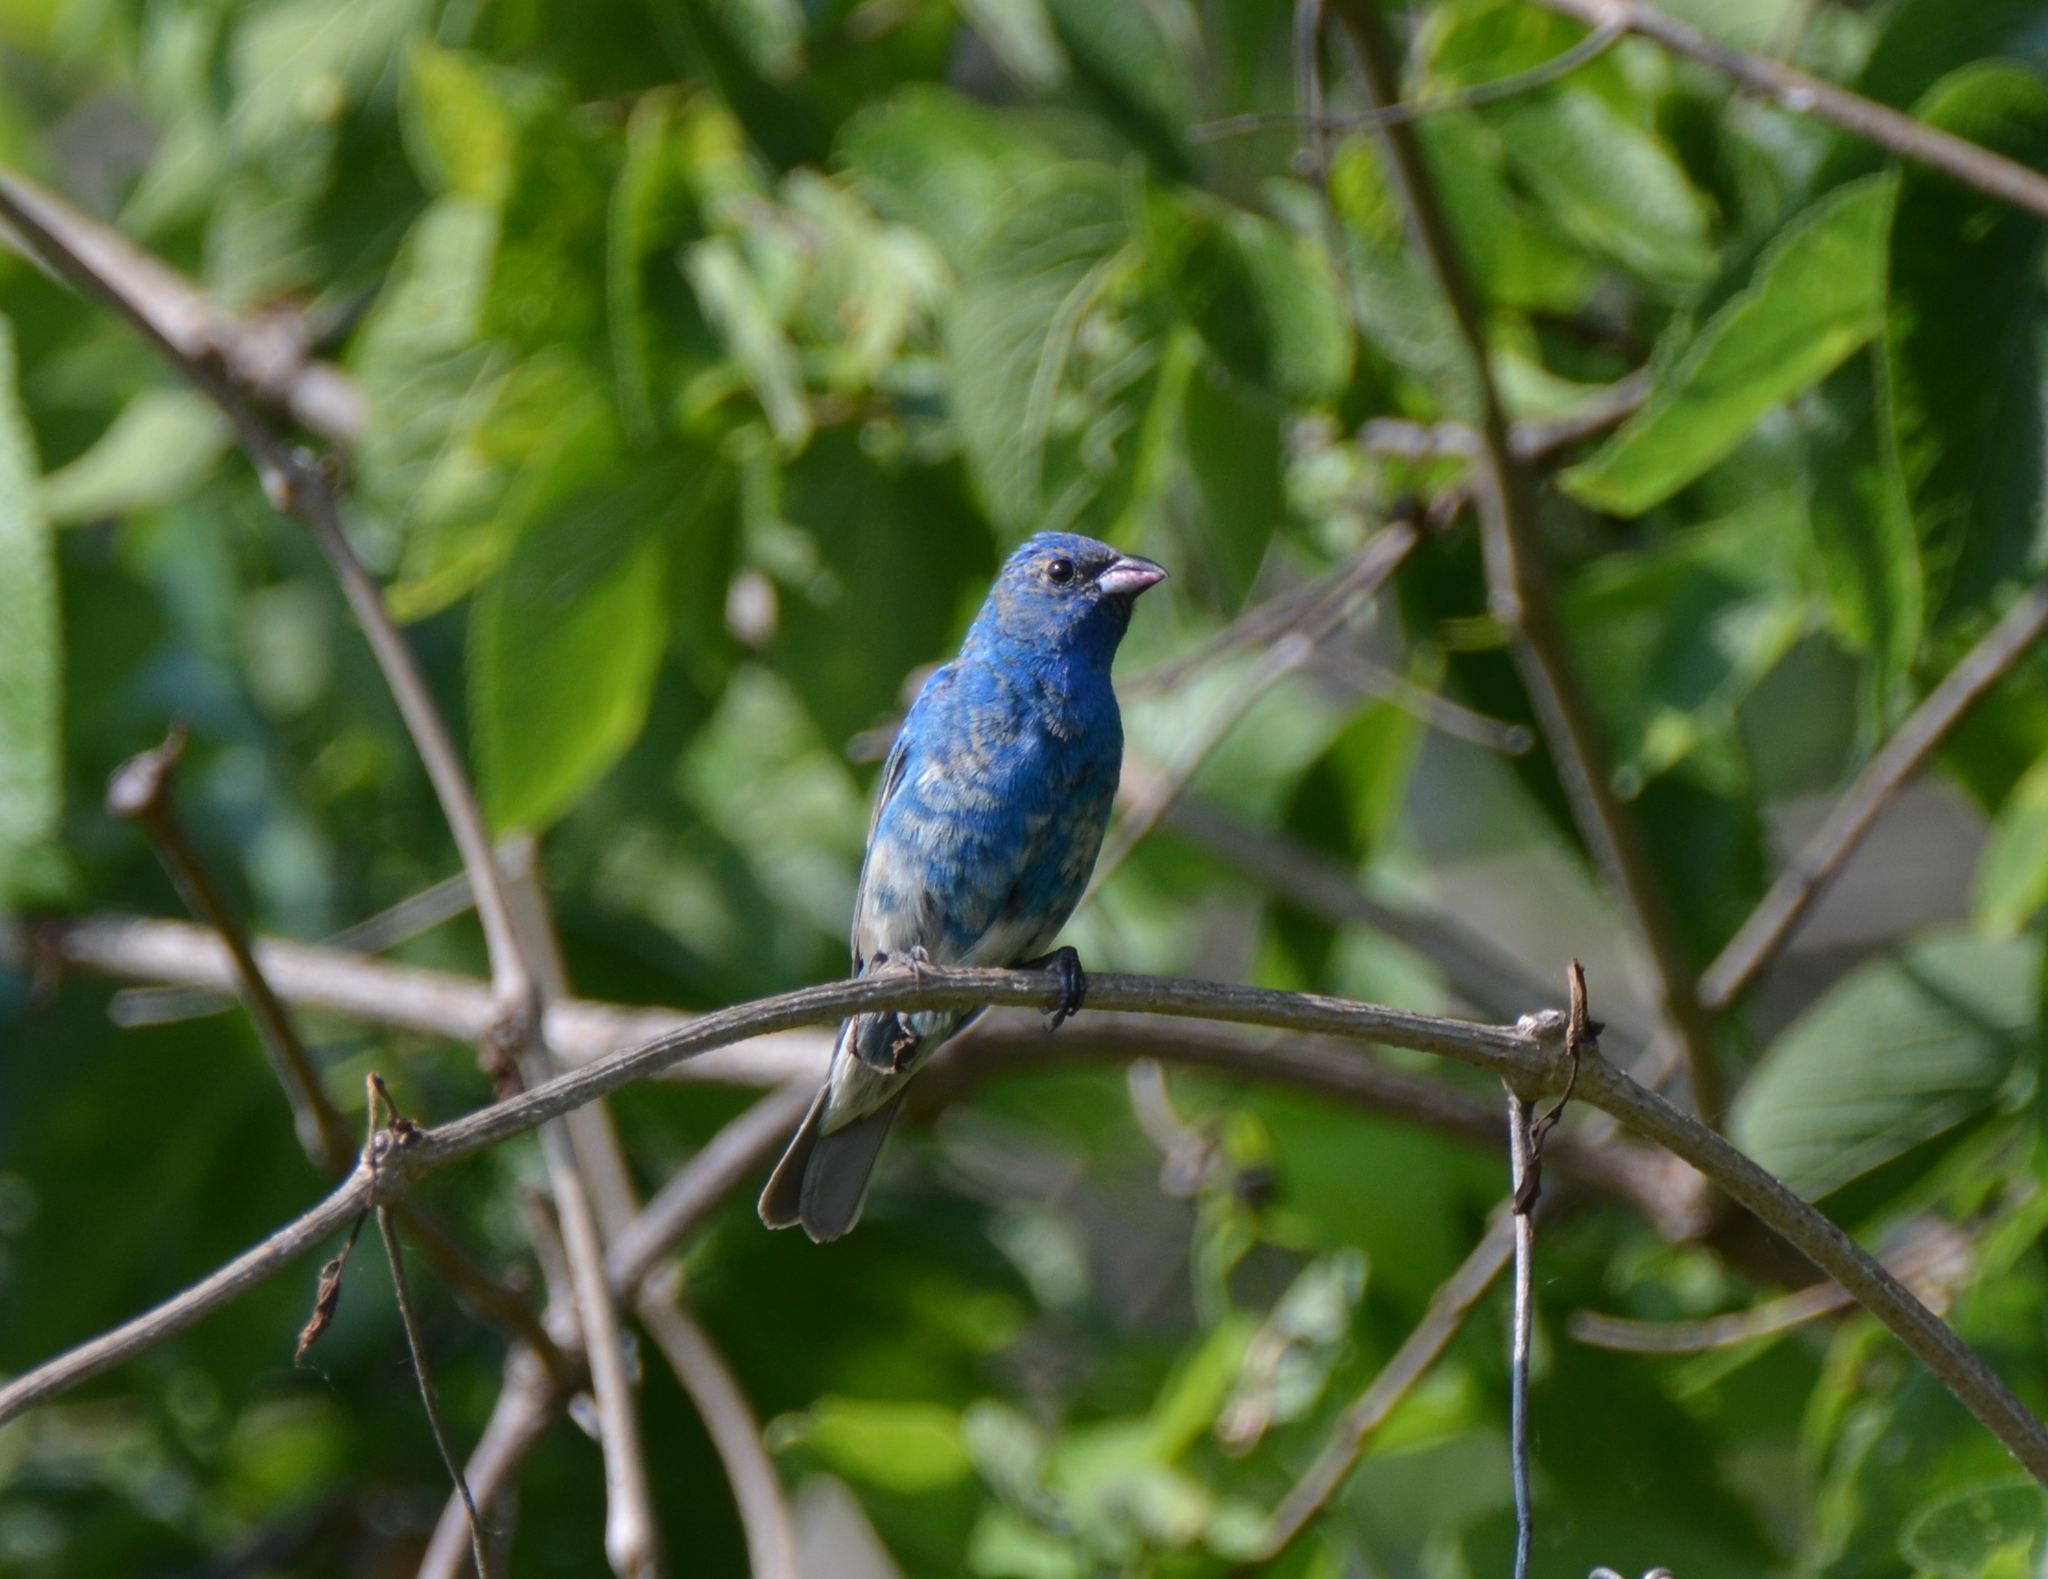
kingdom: Animalia
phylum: Chordata
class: Aves
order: Passeriformes
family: Cardinalidae
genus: Passerina
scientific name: Passerina cyanea
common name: Indigo bunting
